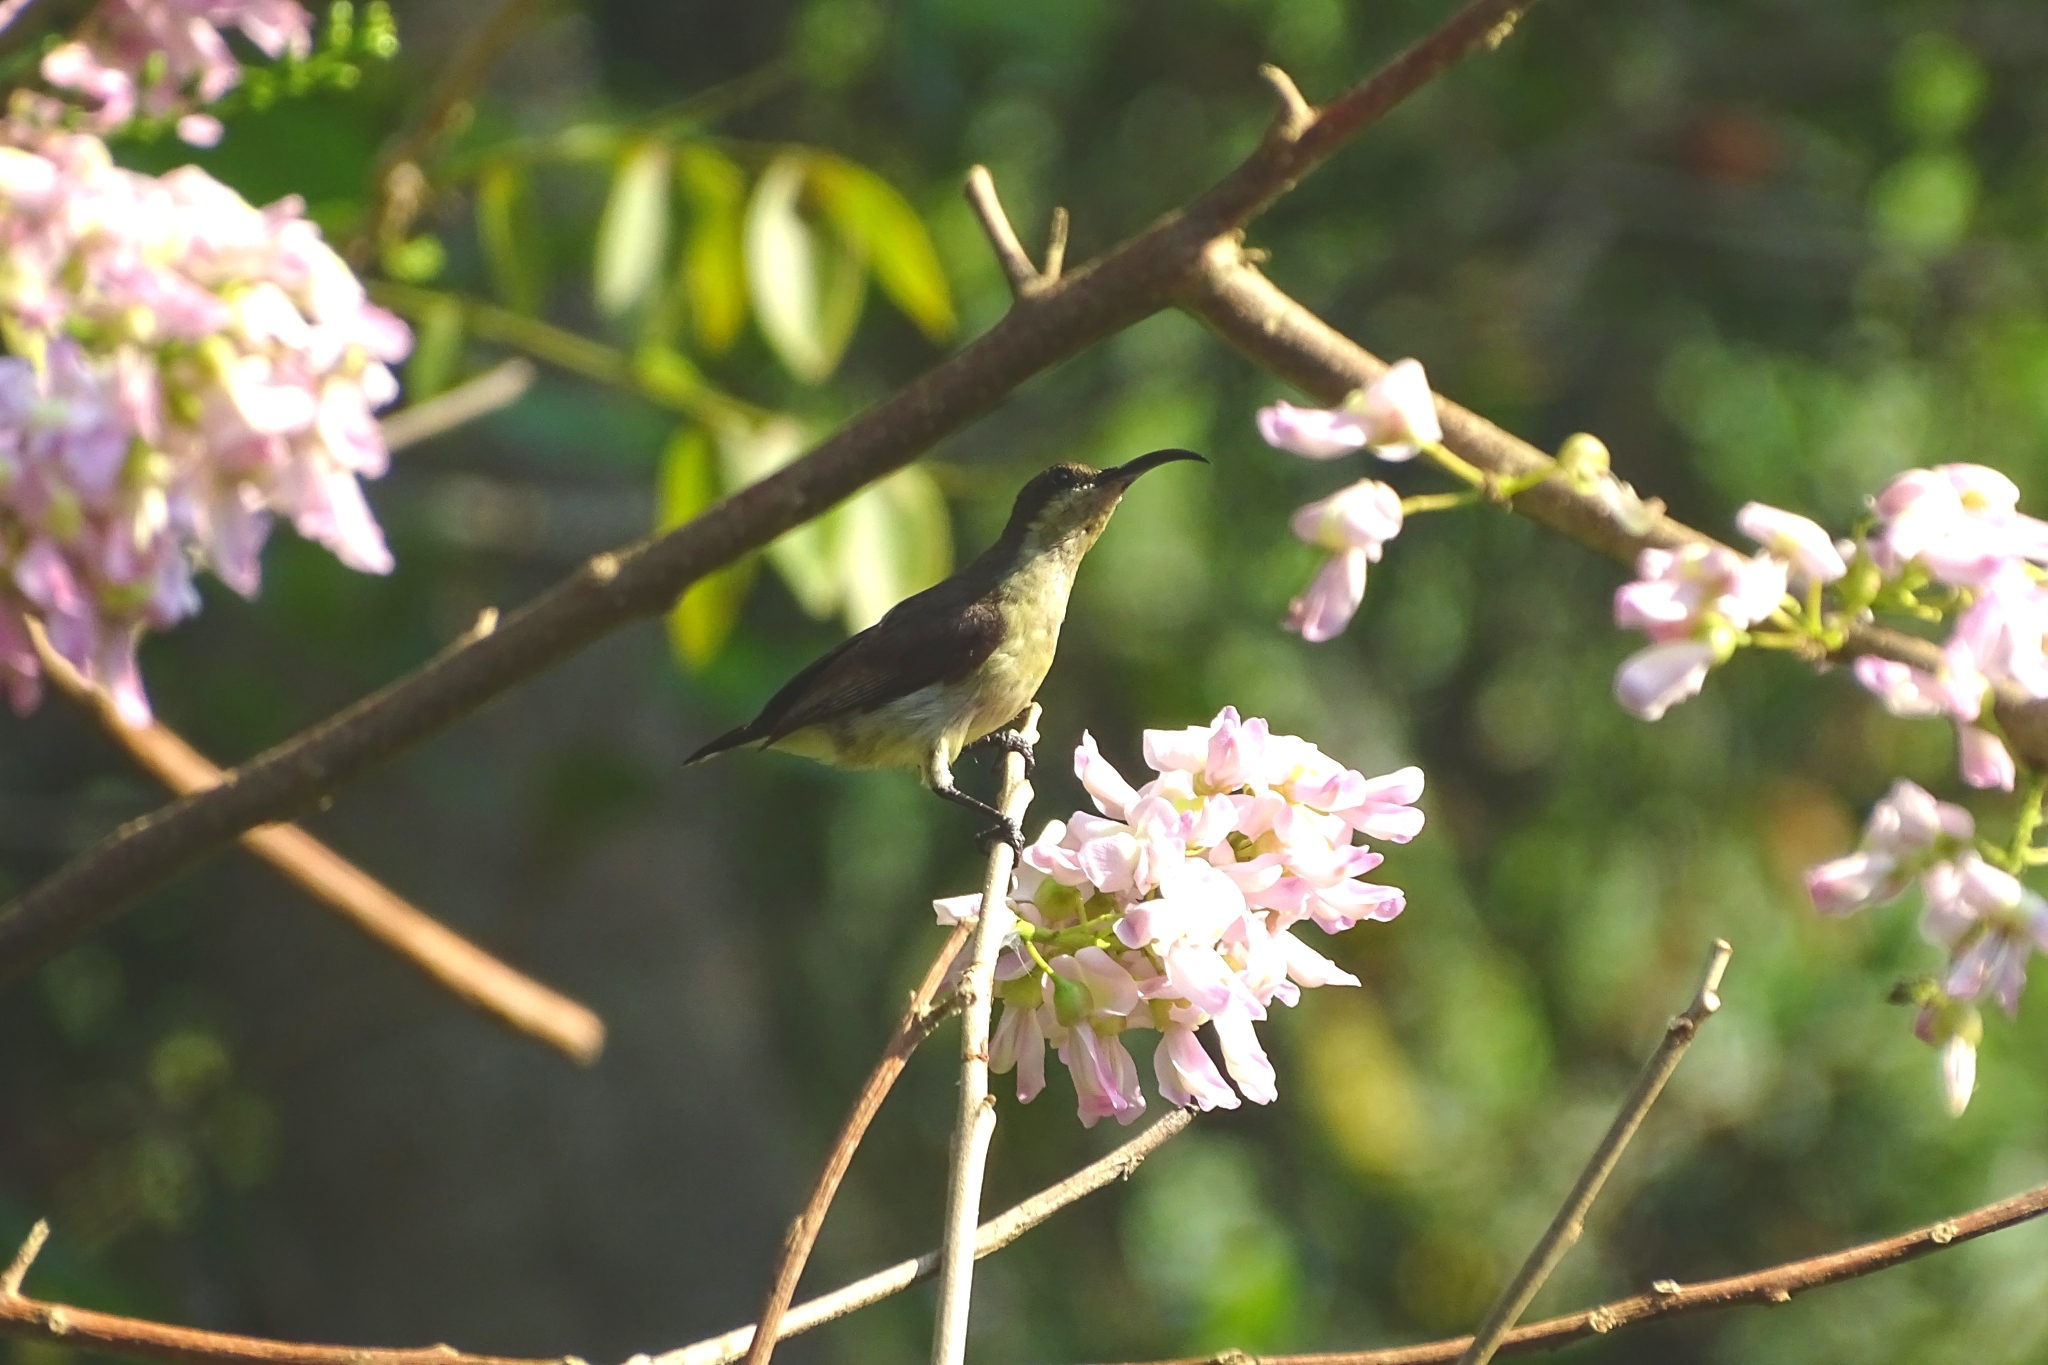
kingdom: Animalia
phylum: Chordata
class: Aves
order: Passeriformes
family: Nectariniidae
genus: Cinnyris
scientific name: Cinnyris lotenius
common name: Loten's sunbird
